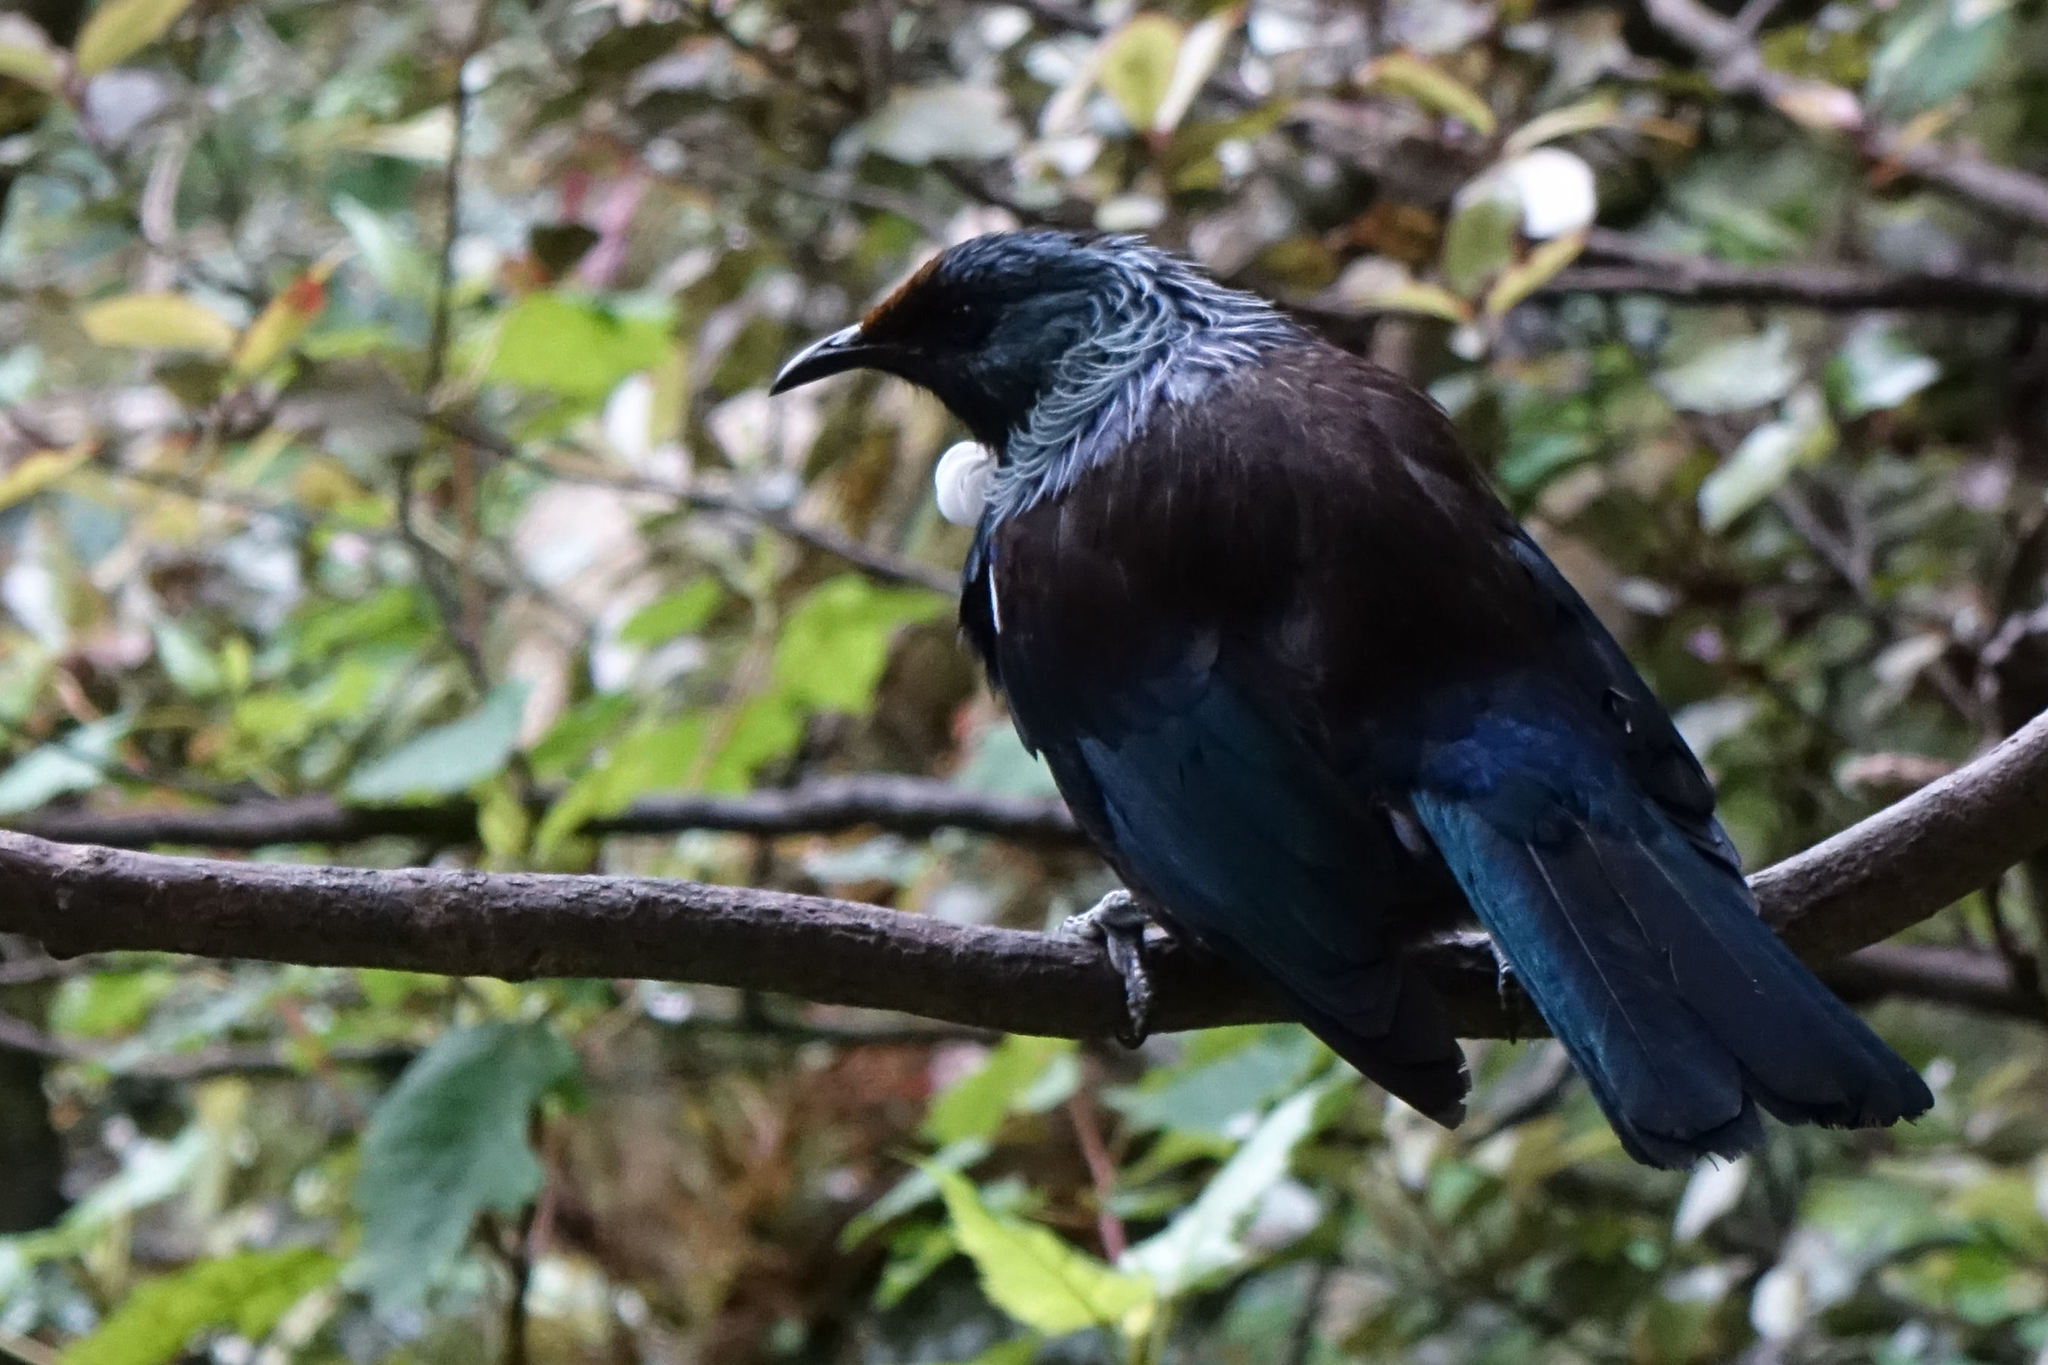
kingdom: Animalia
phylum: Chordata
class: Aves
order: Passeriformes
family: Meliphagidae
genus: Prosthemadera
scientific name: Prosthemadera novaeseelandiae
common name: Tui
